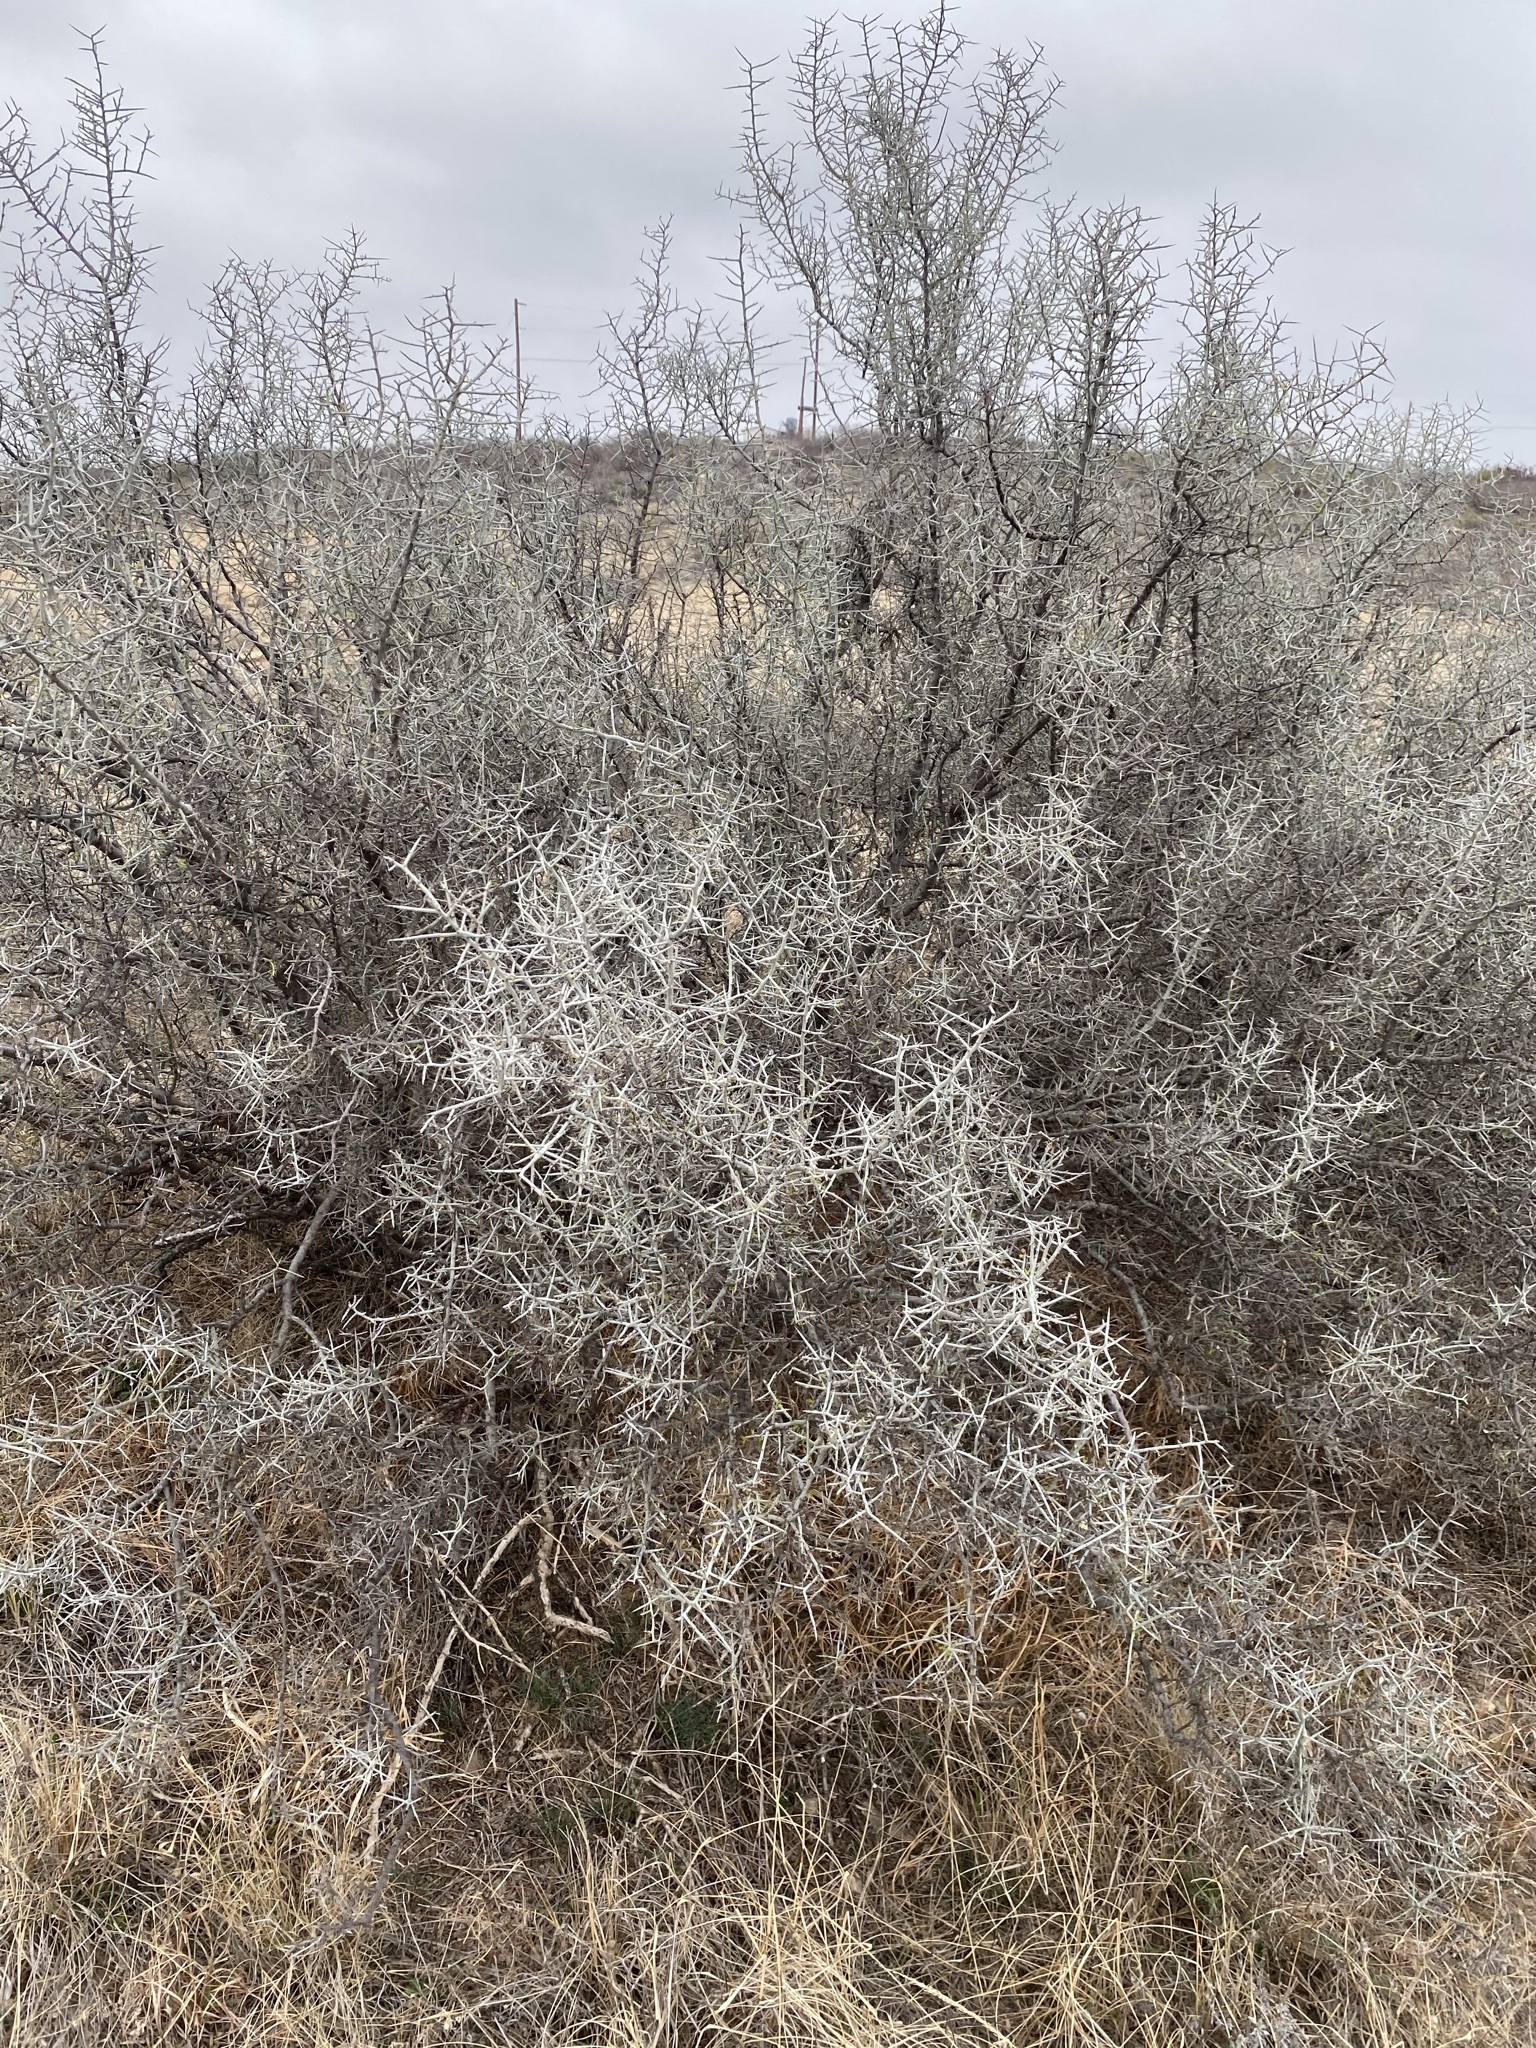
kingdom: Plantae
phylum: Tracheophyta
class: Magnoliopsida
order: Rosales
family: Rhamnaceae
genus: Sarcomphalus
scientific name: Sarcomphalus obtusifolius
